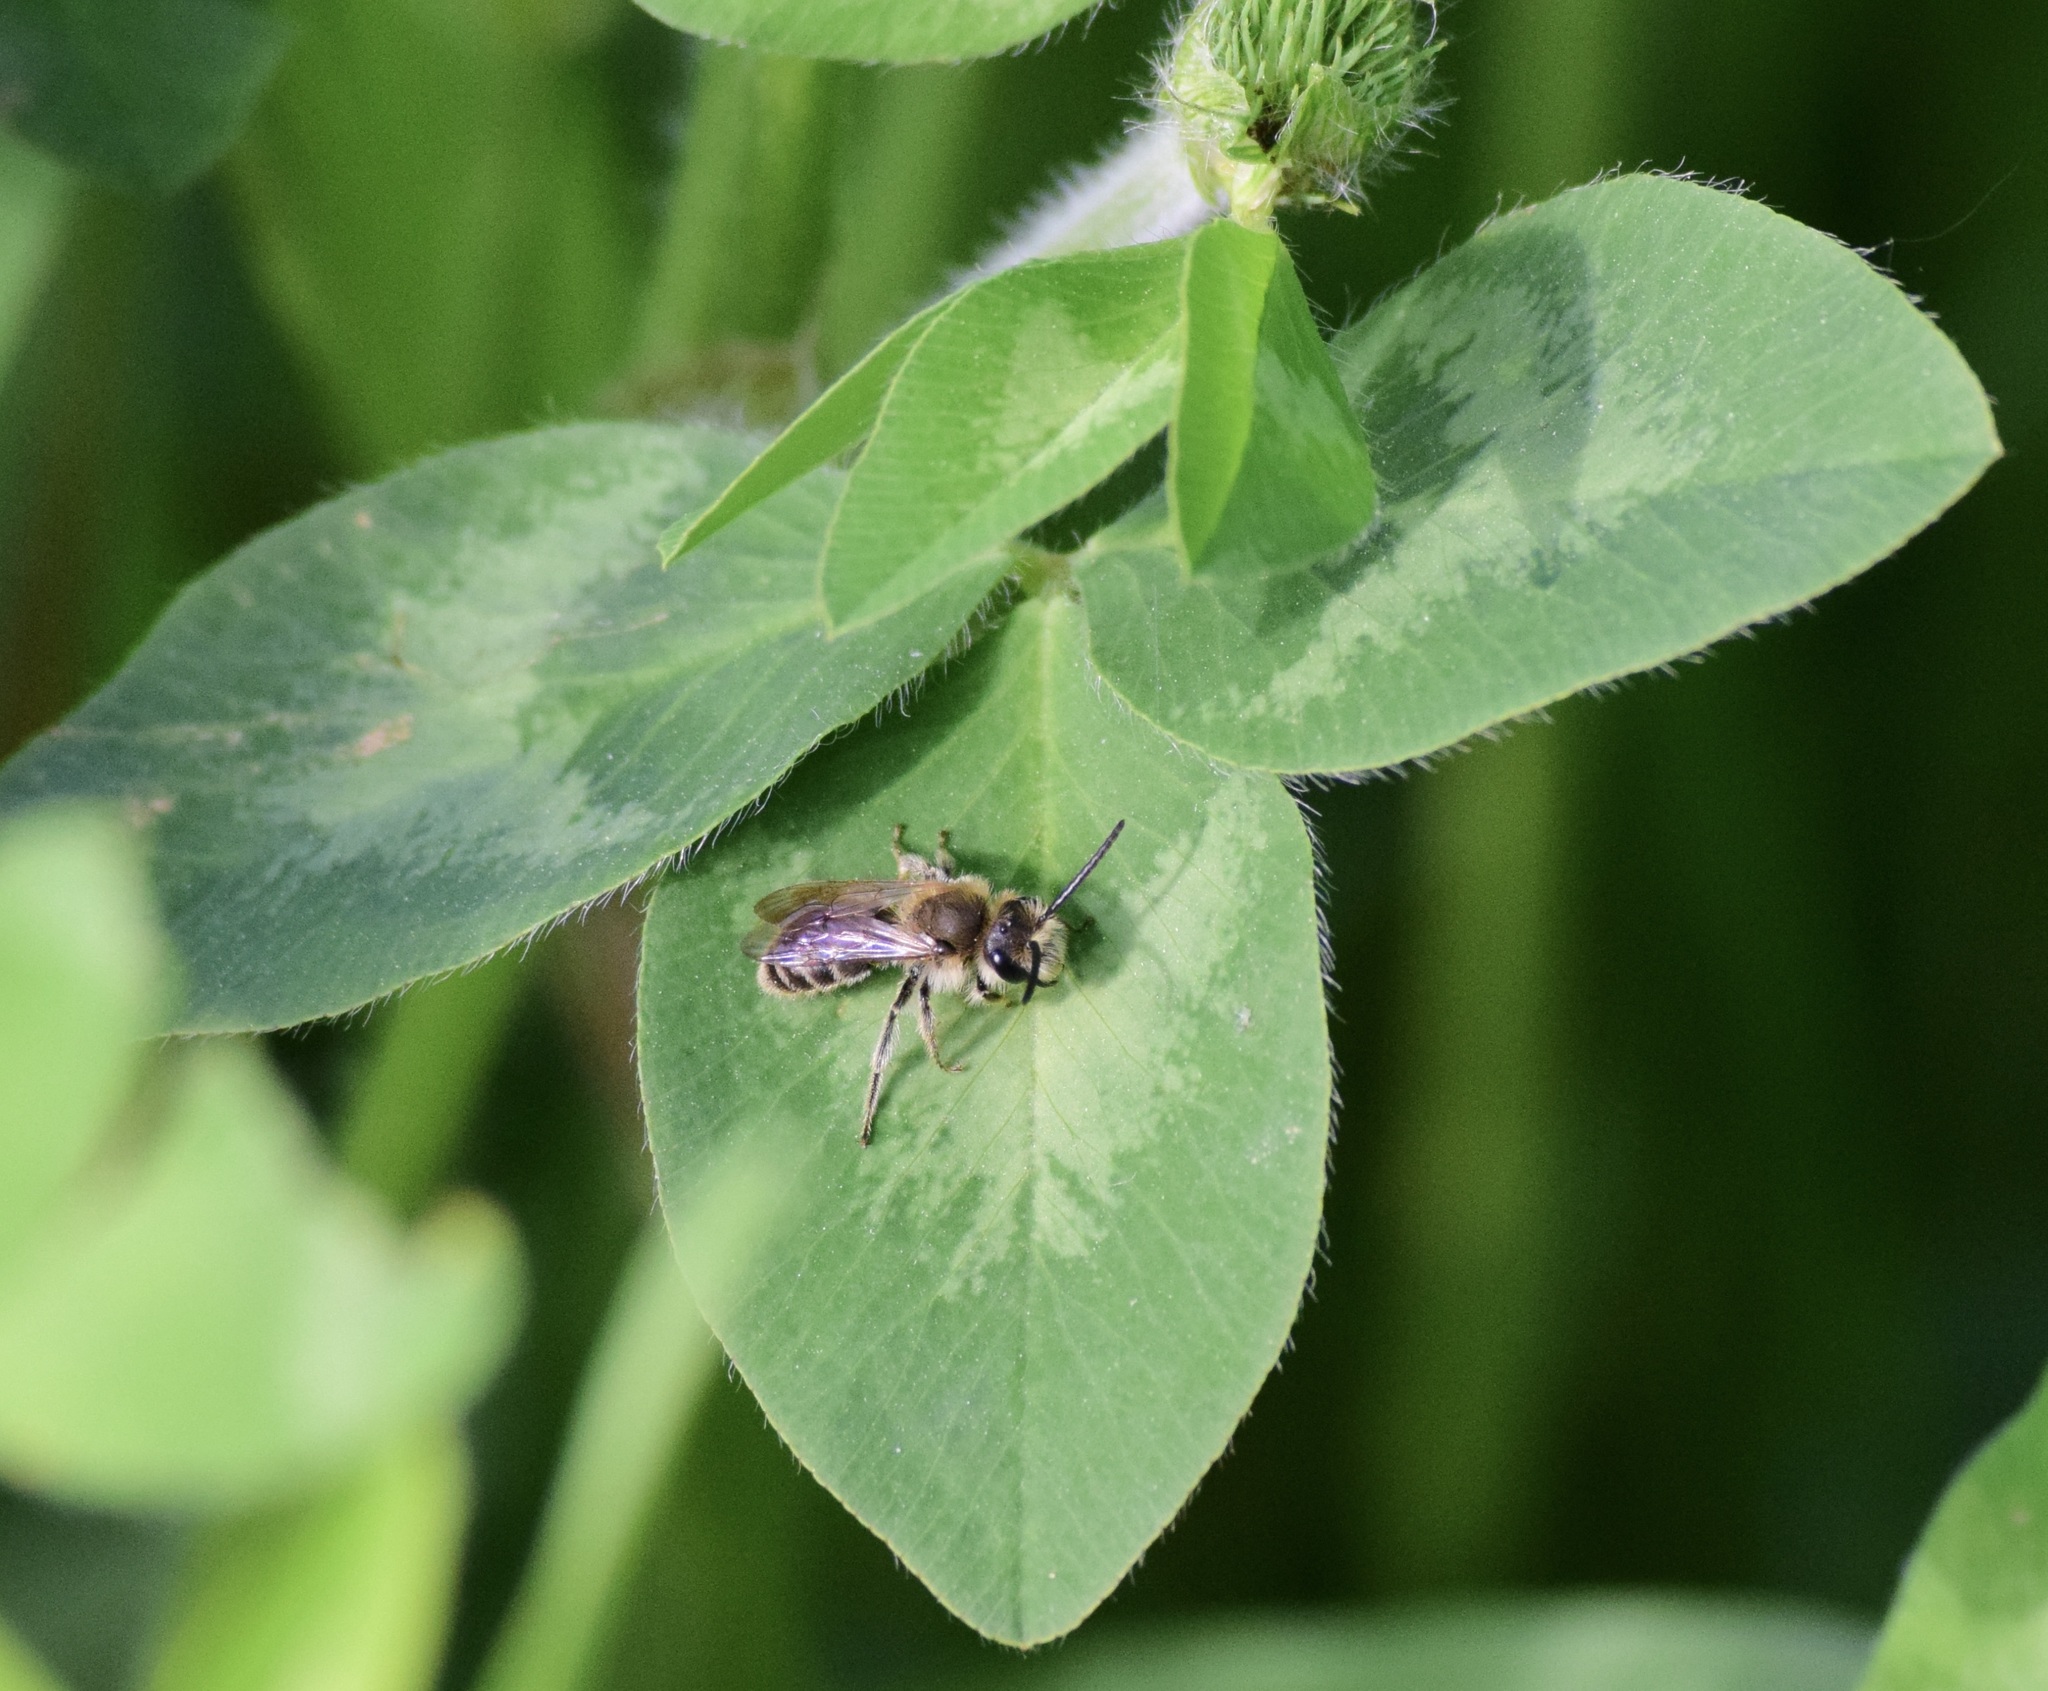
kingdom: Animalia
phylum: Arthropoda
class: Insecta
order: Hymenoptera
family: Andrenidae
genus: Andrena
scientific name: Andrena wilkella
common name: Wilke's mining bee
